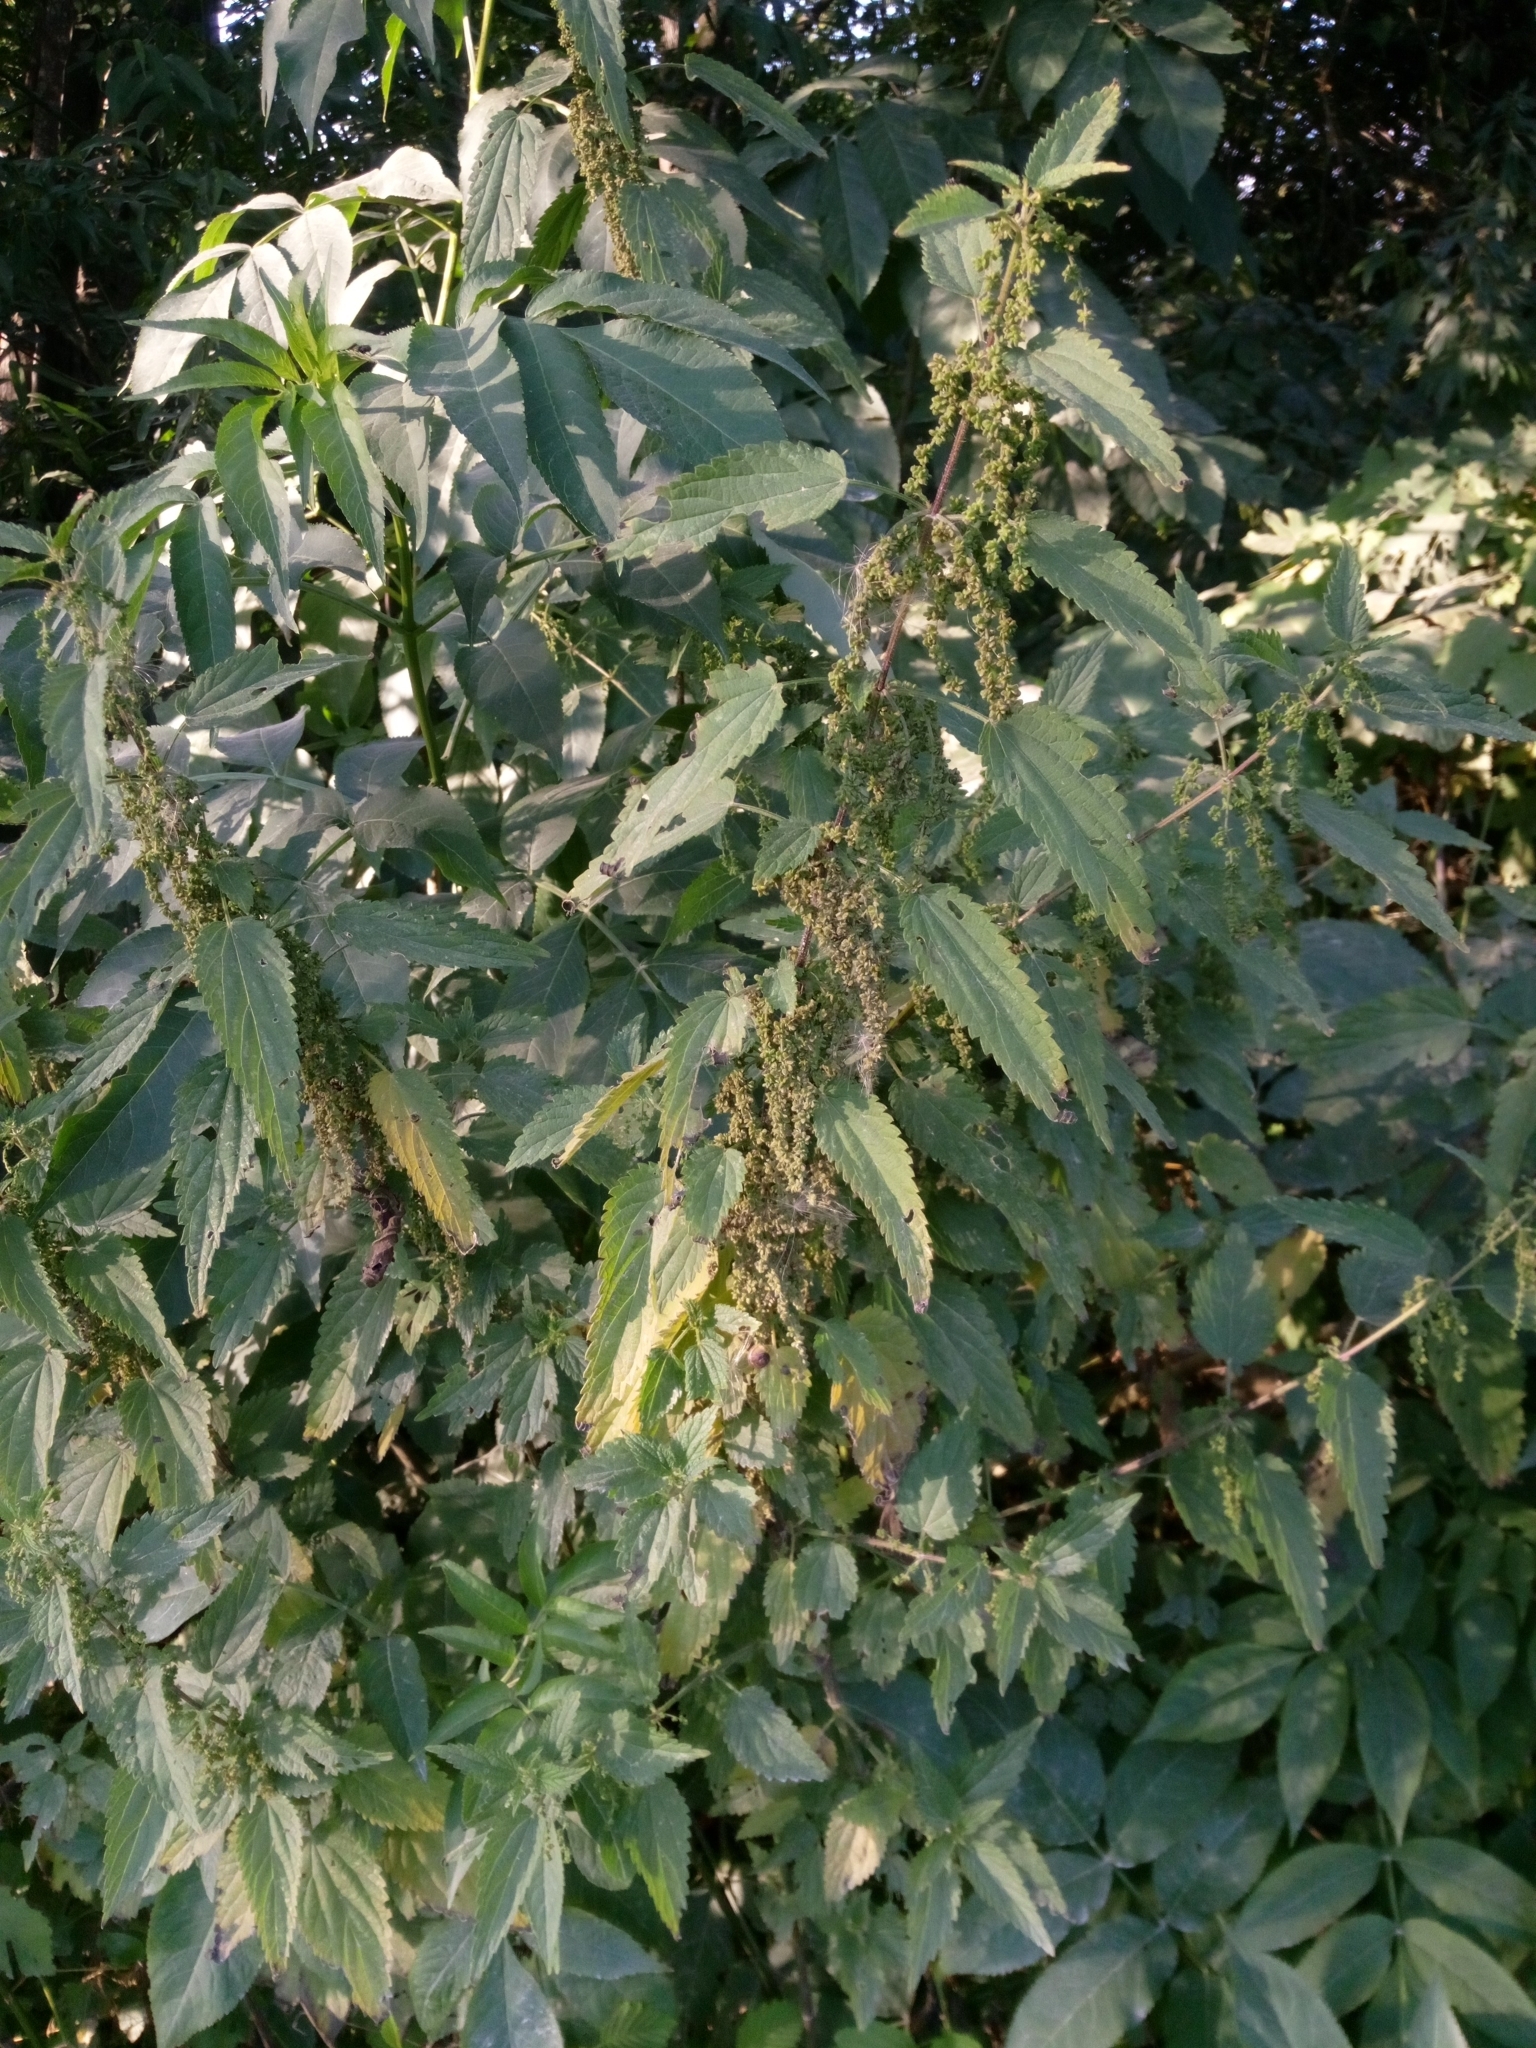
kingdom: Plantae
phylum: Tracheophyta
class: Magnoliopsida
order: Rosales
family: Urticaceae
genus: Urtica
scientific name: Urtica dioica
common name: Common nettle
